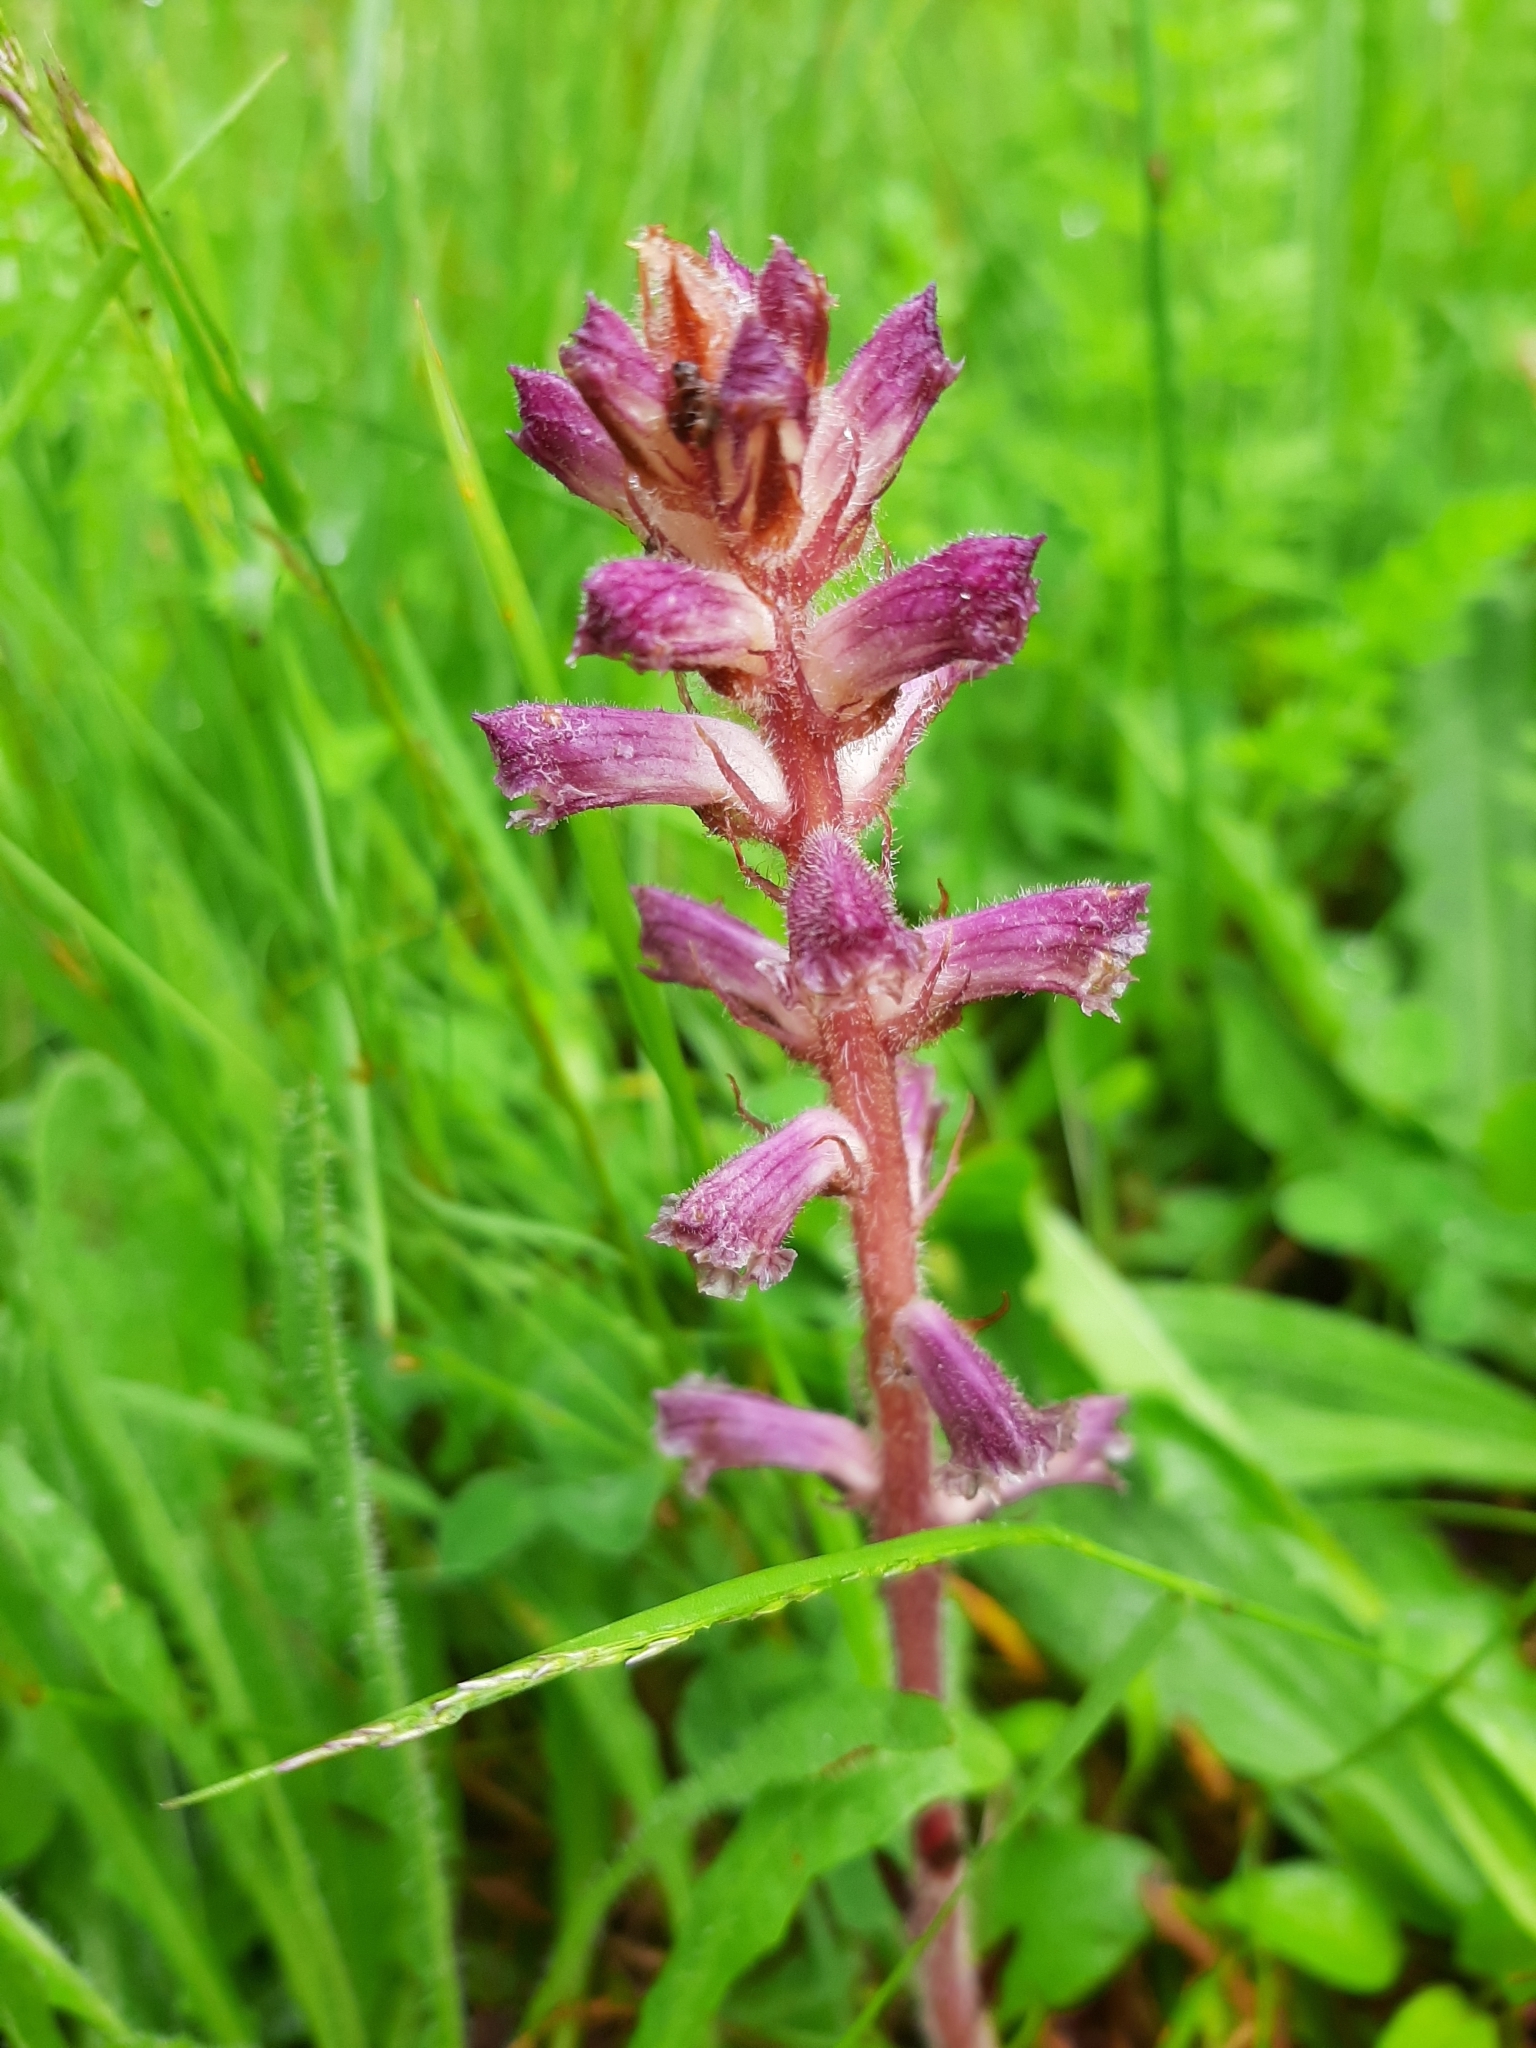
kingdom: Plantae
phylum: Tracheophyta
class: Magnoliopsida
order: Lamiales
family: Orobanchaceae
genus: Orobanche
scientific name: Orobanche minor
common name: Common broomrape
